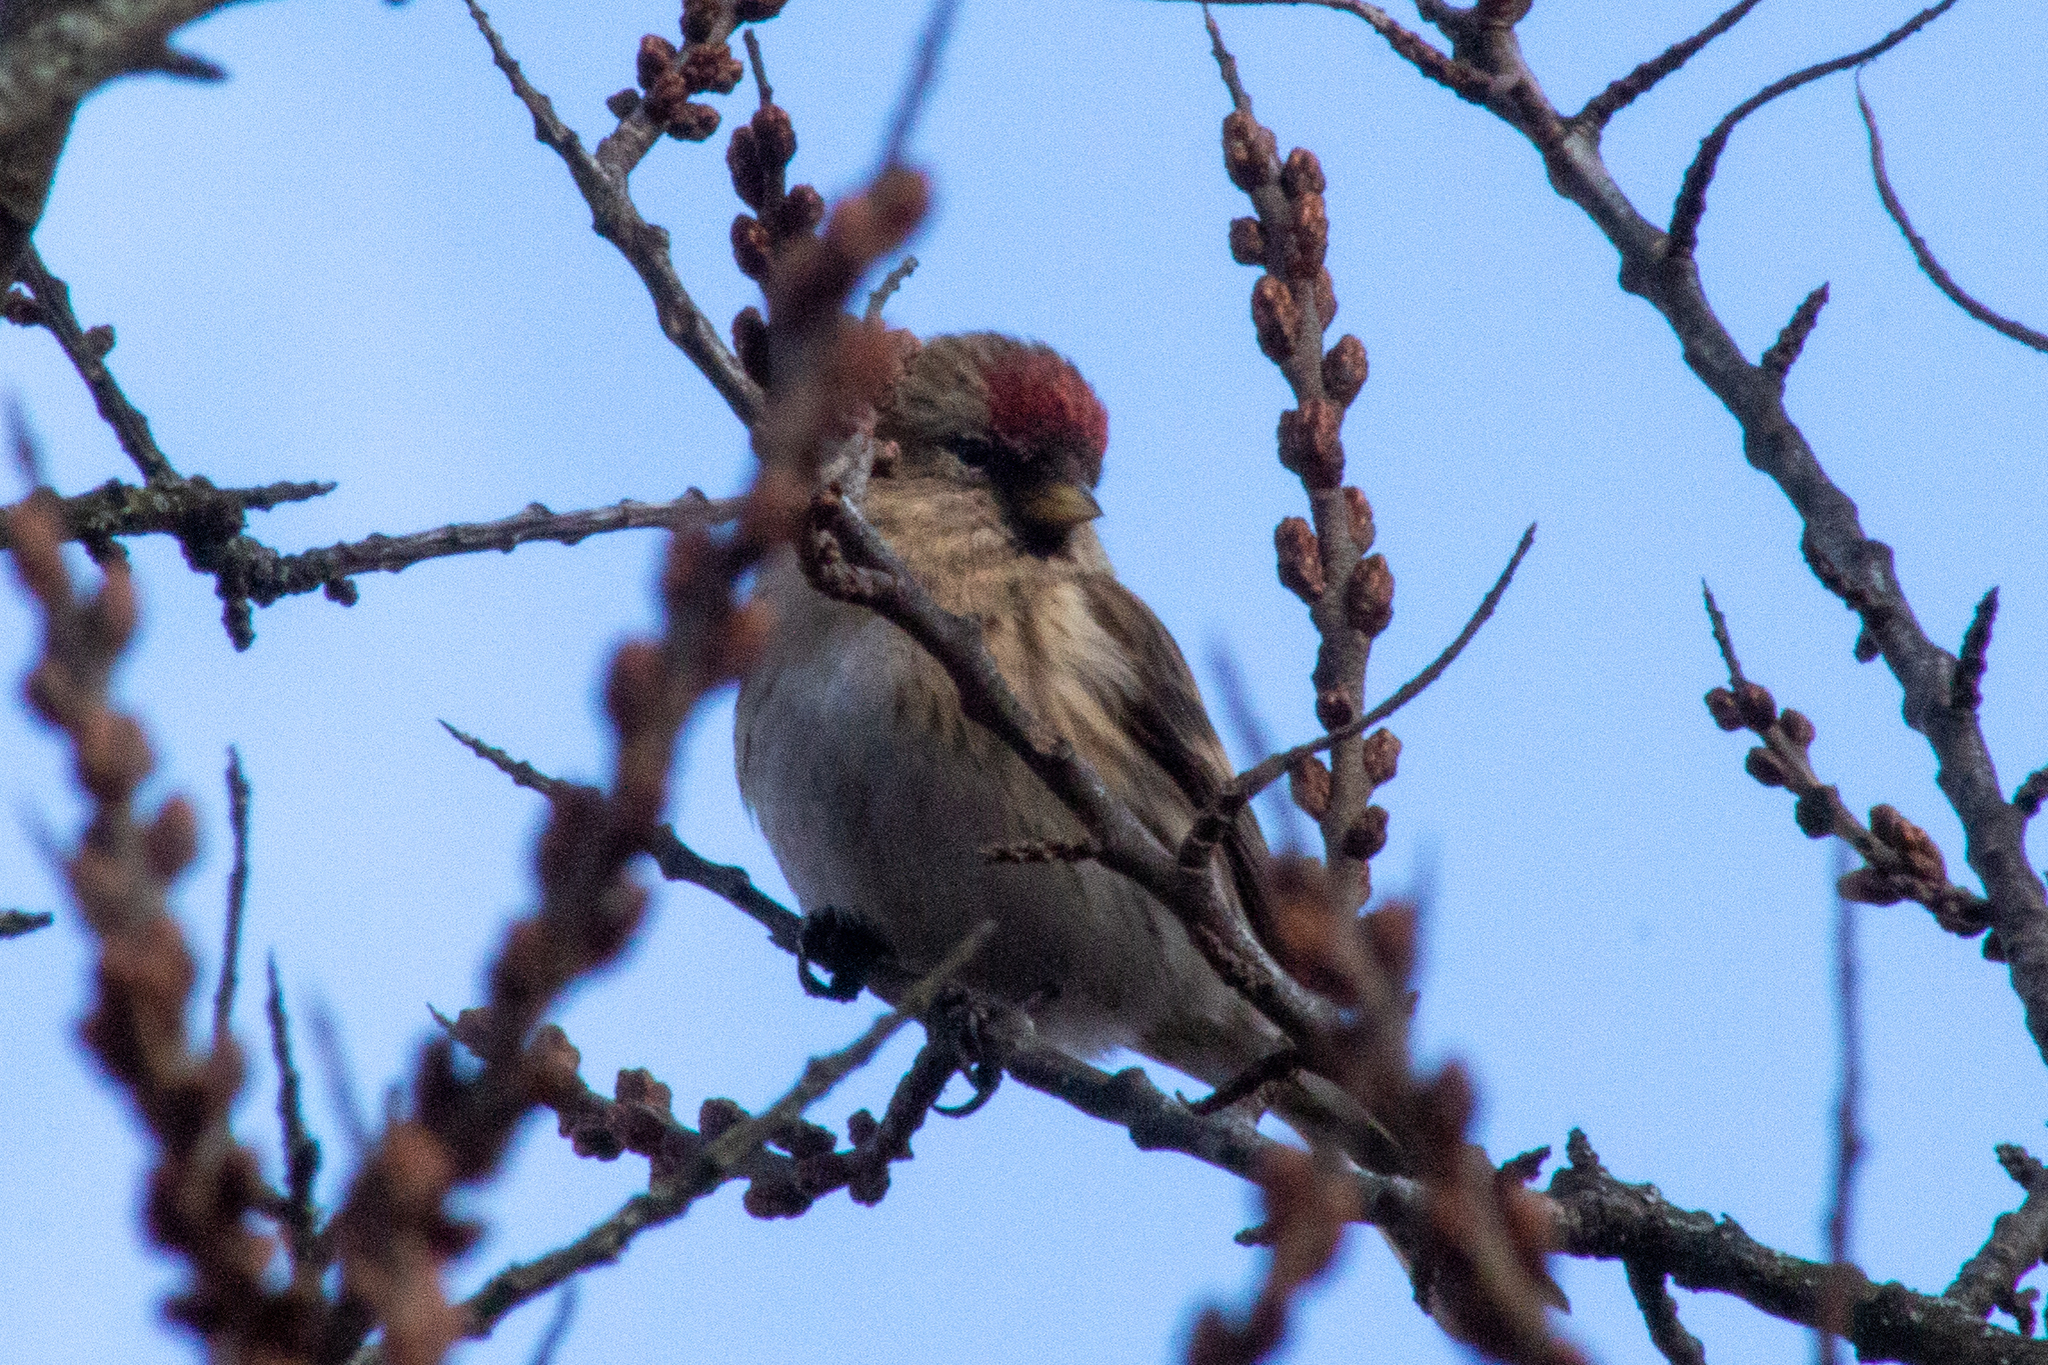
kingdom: Animalia
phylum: Chordata
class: Aves
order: Passeriformes
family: Fringillidae
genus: Acanthis
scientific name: Acanthis flammea
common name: Common redpoll
